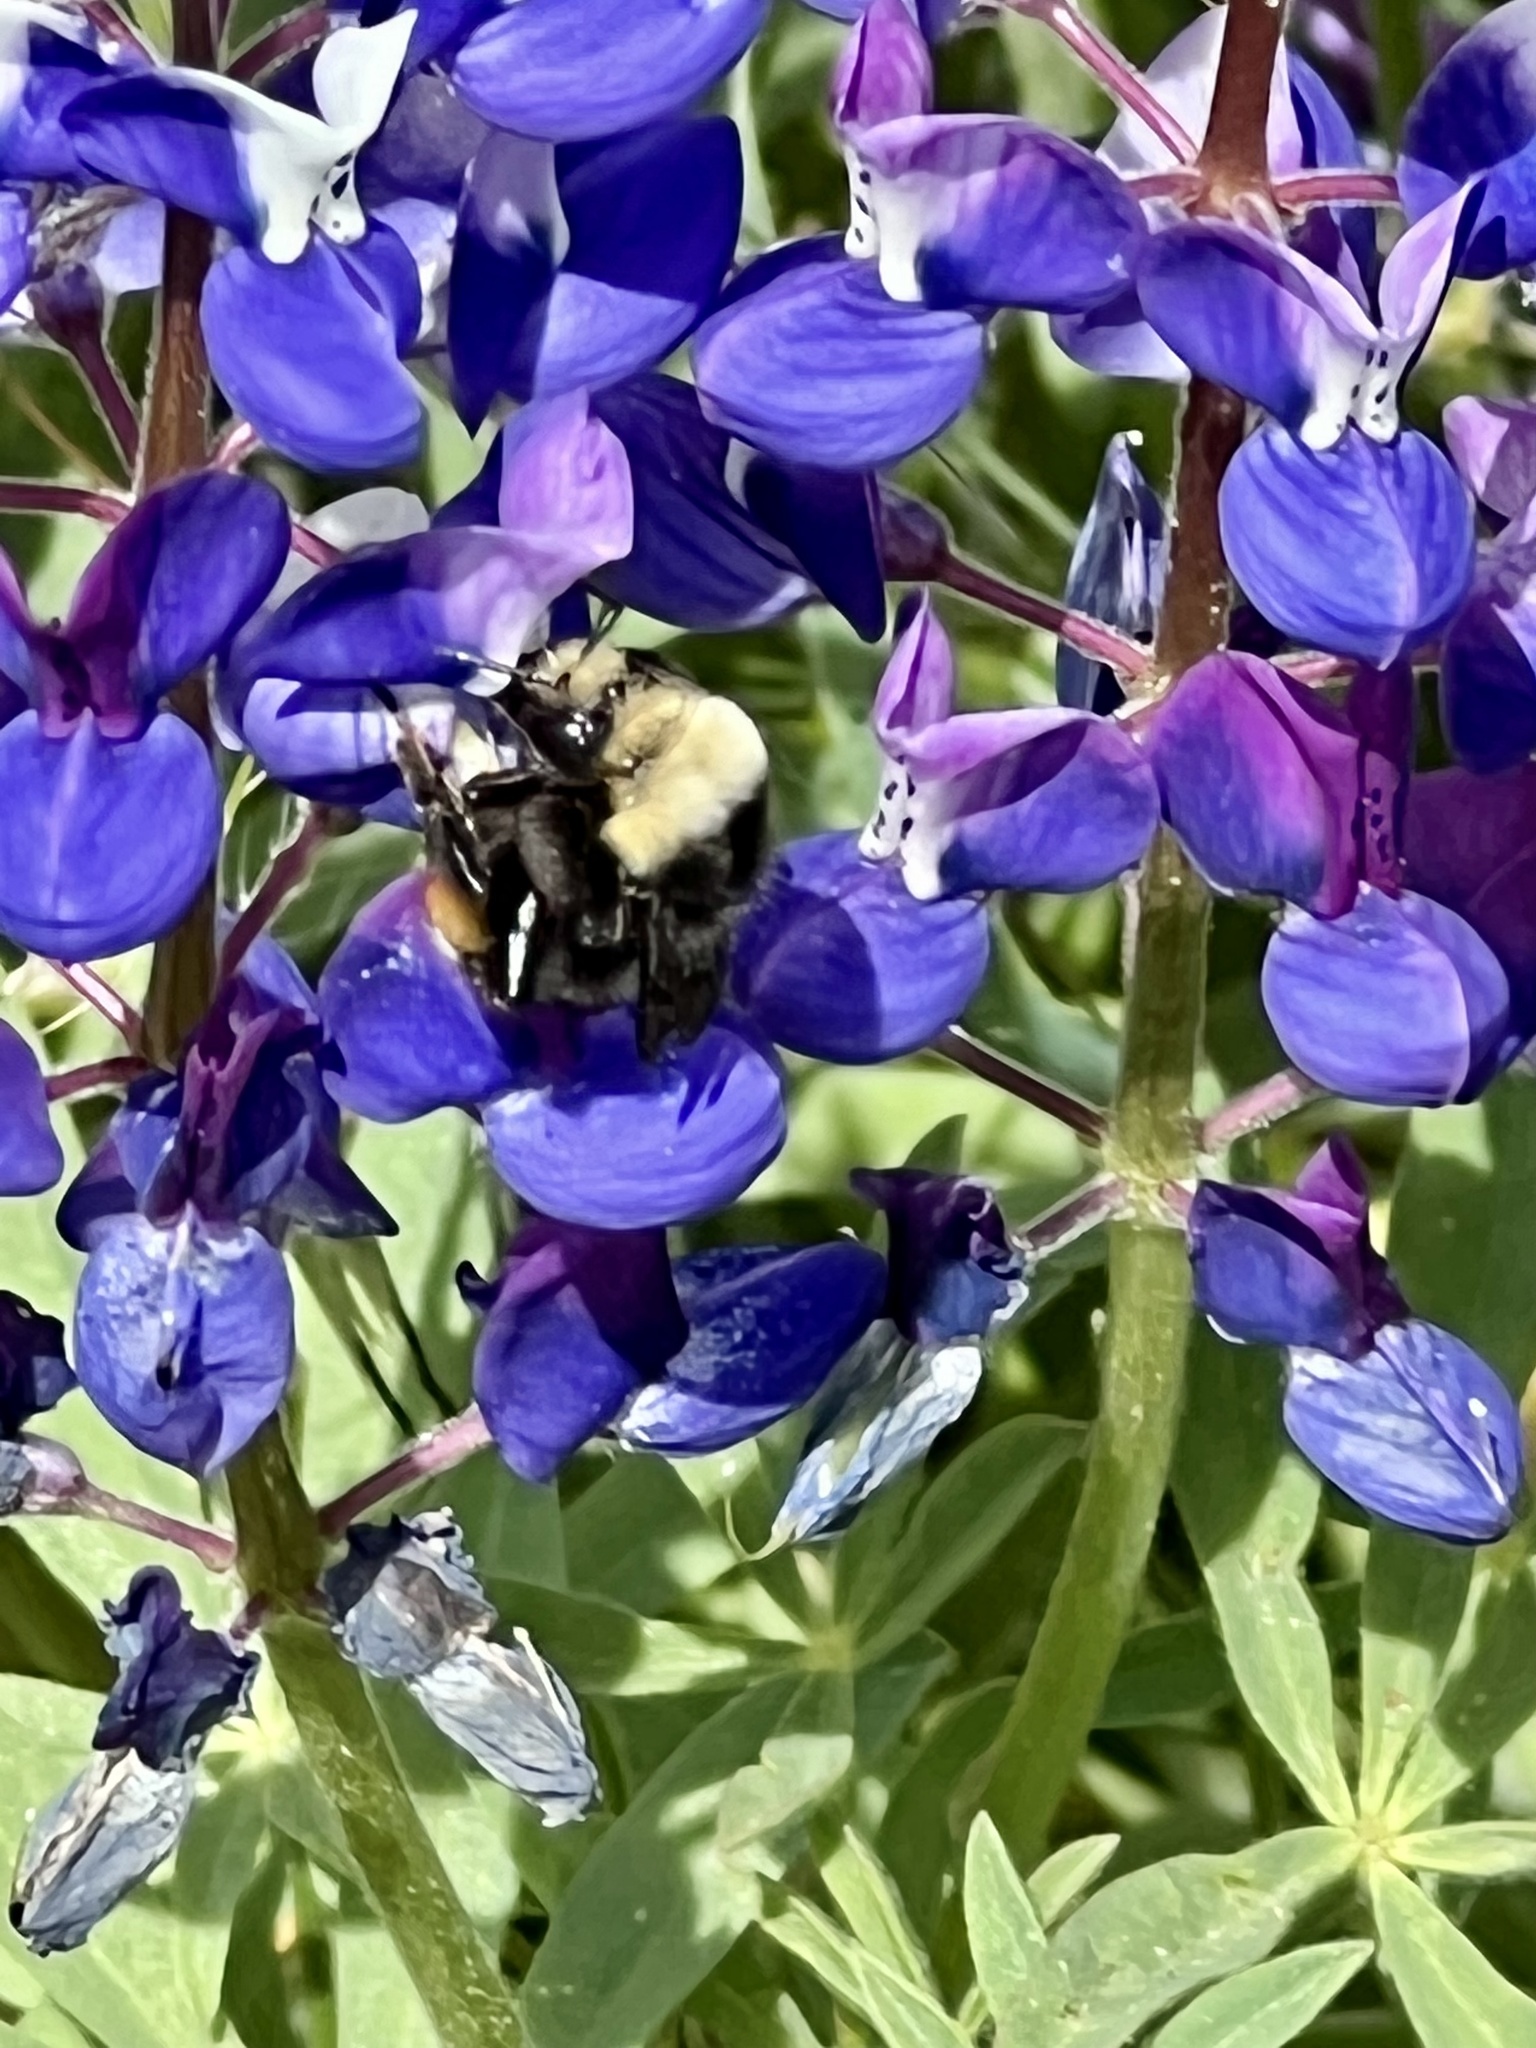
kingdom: Animalia
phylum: Arthropoda
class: Insecta
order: Hymenoptera
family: Apidae
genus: Bombus
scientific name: Bombus vosnesenskii
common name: Vosnesensky bumble bee
